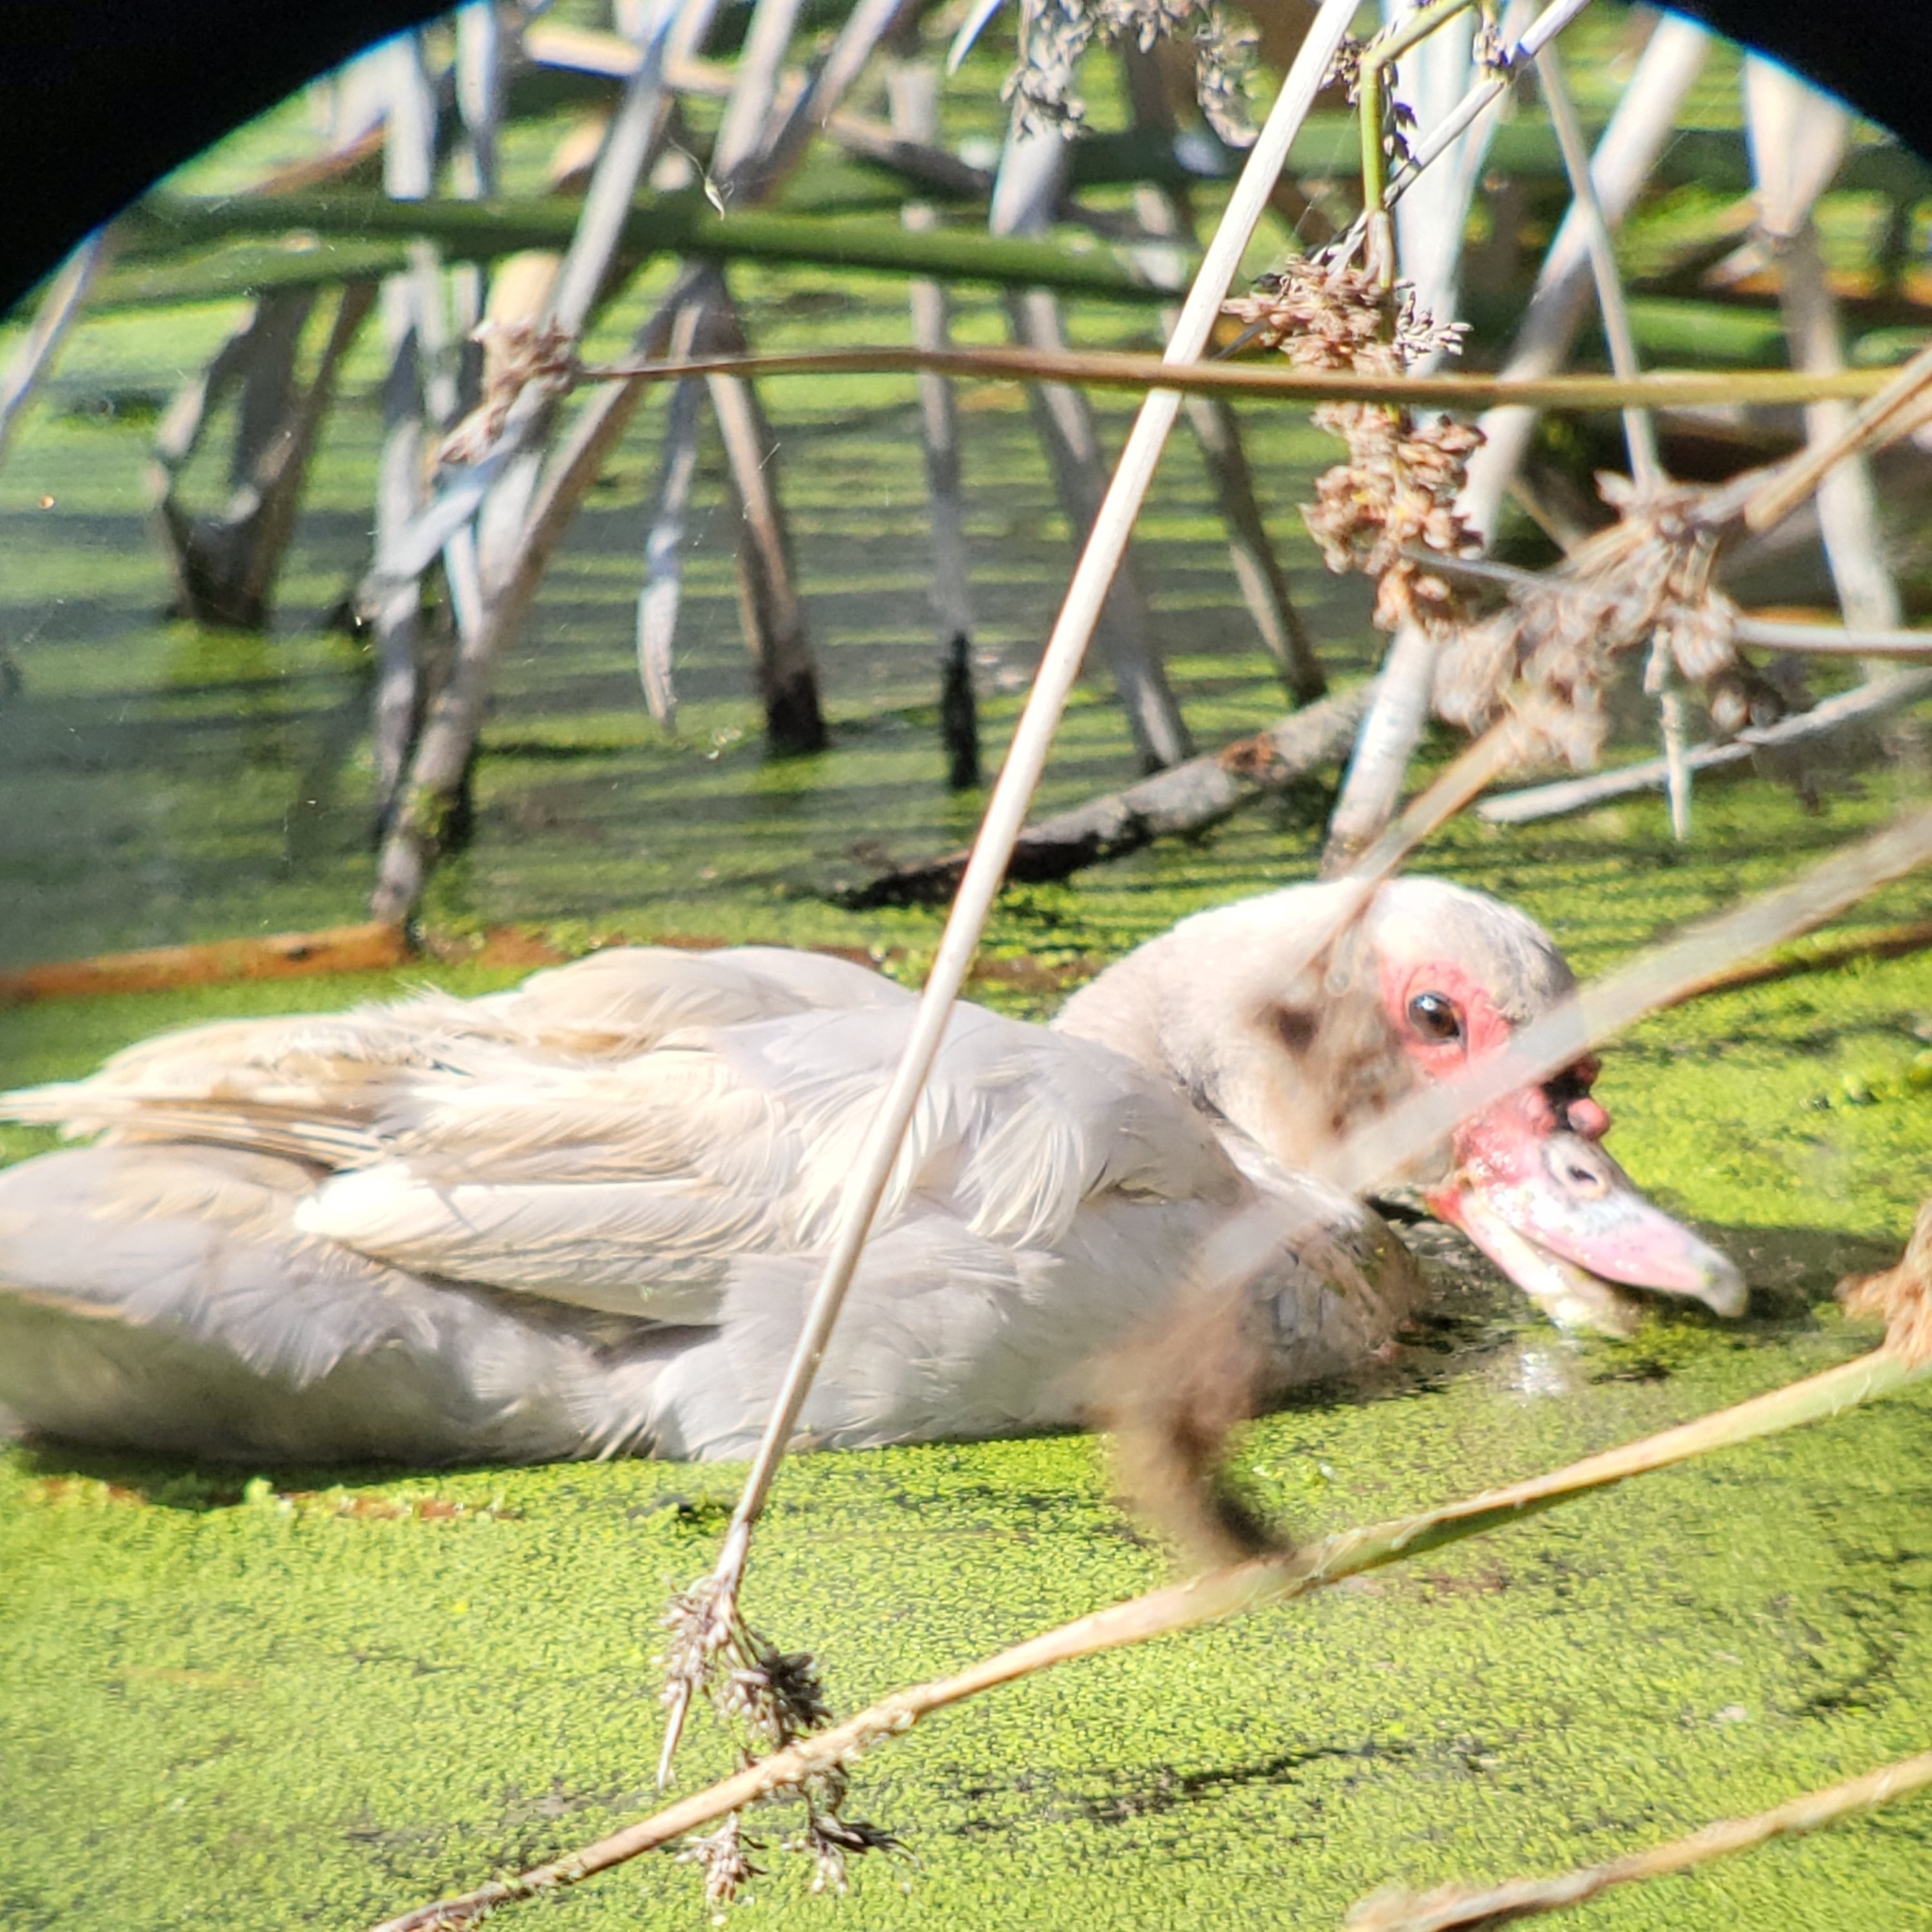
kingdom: Animalia
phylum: Chordata
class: Aves
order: Anseriformes
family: Anatidae
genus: Cairina
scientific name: Cairina moschata
